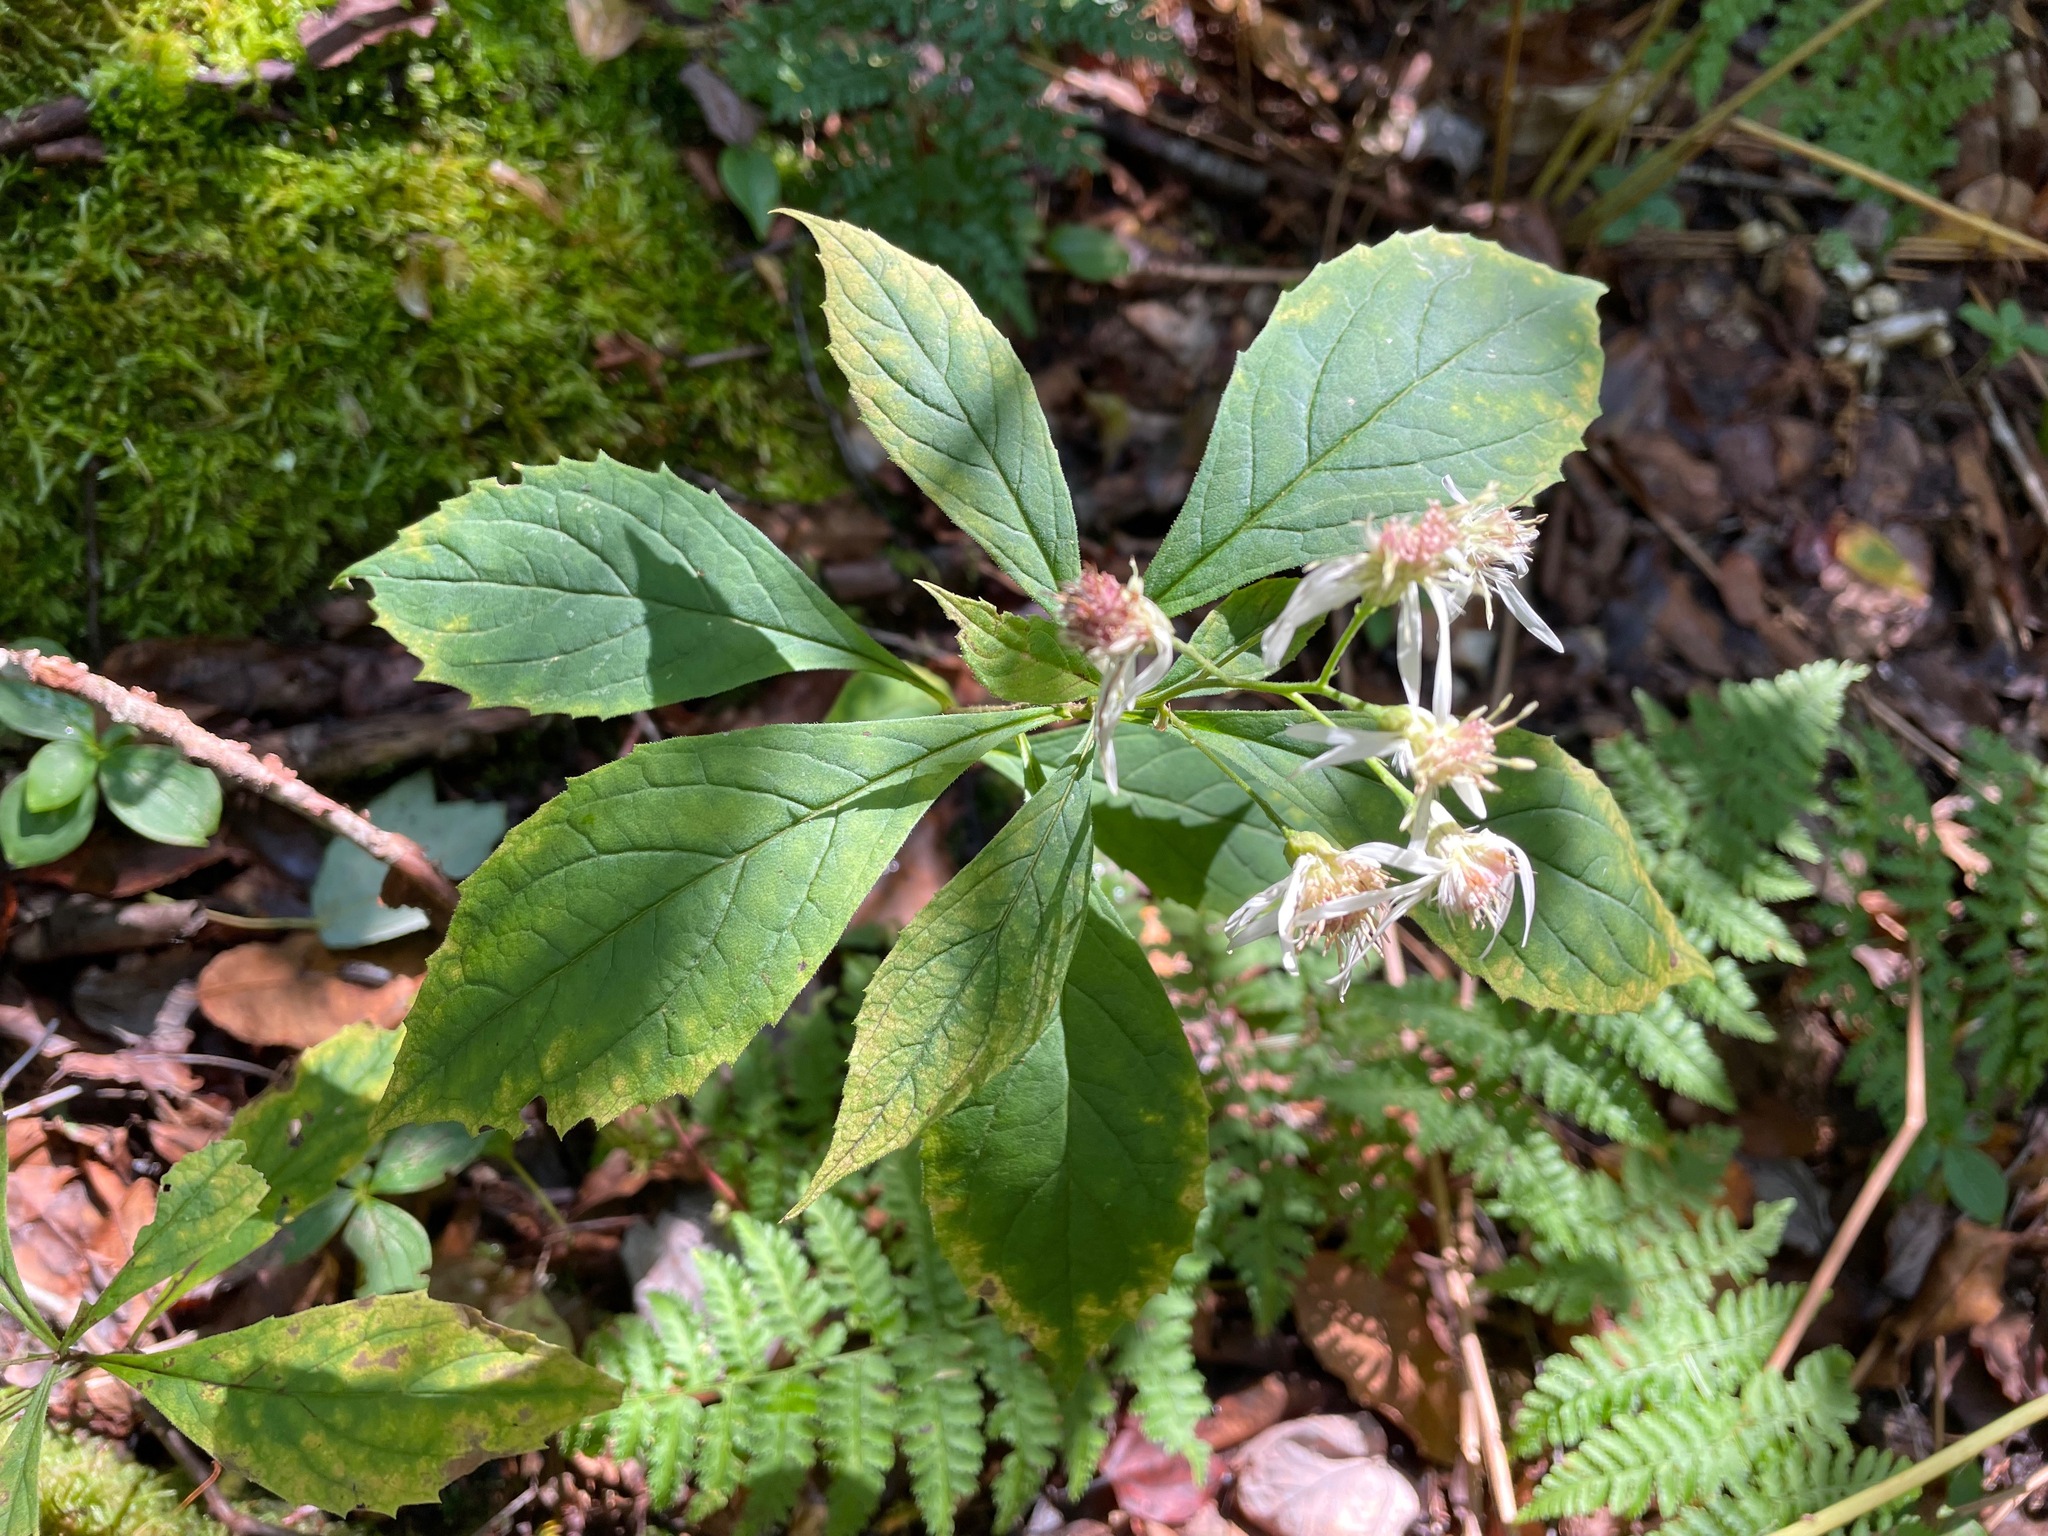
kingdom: Plantae
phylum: Tracheophyta
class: Magnoliopsida
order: Asterales
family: Asteraceae
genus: Oclemena
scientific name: Oclemena acuminata
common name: Mountain aster
